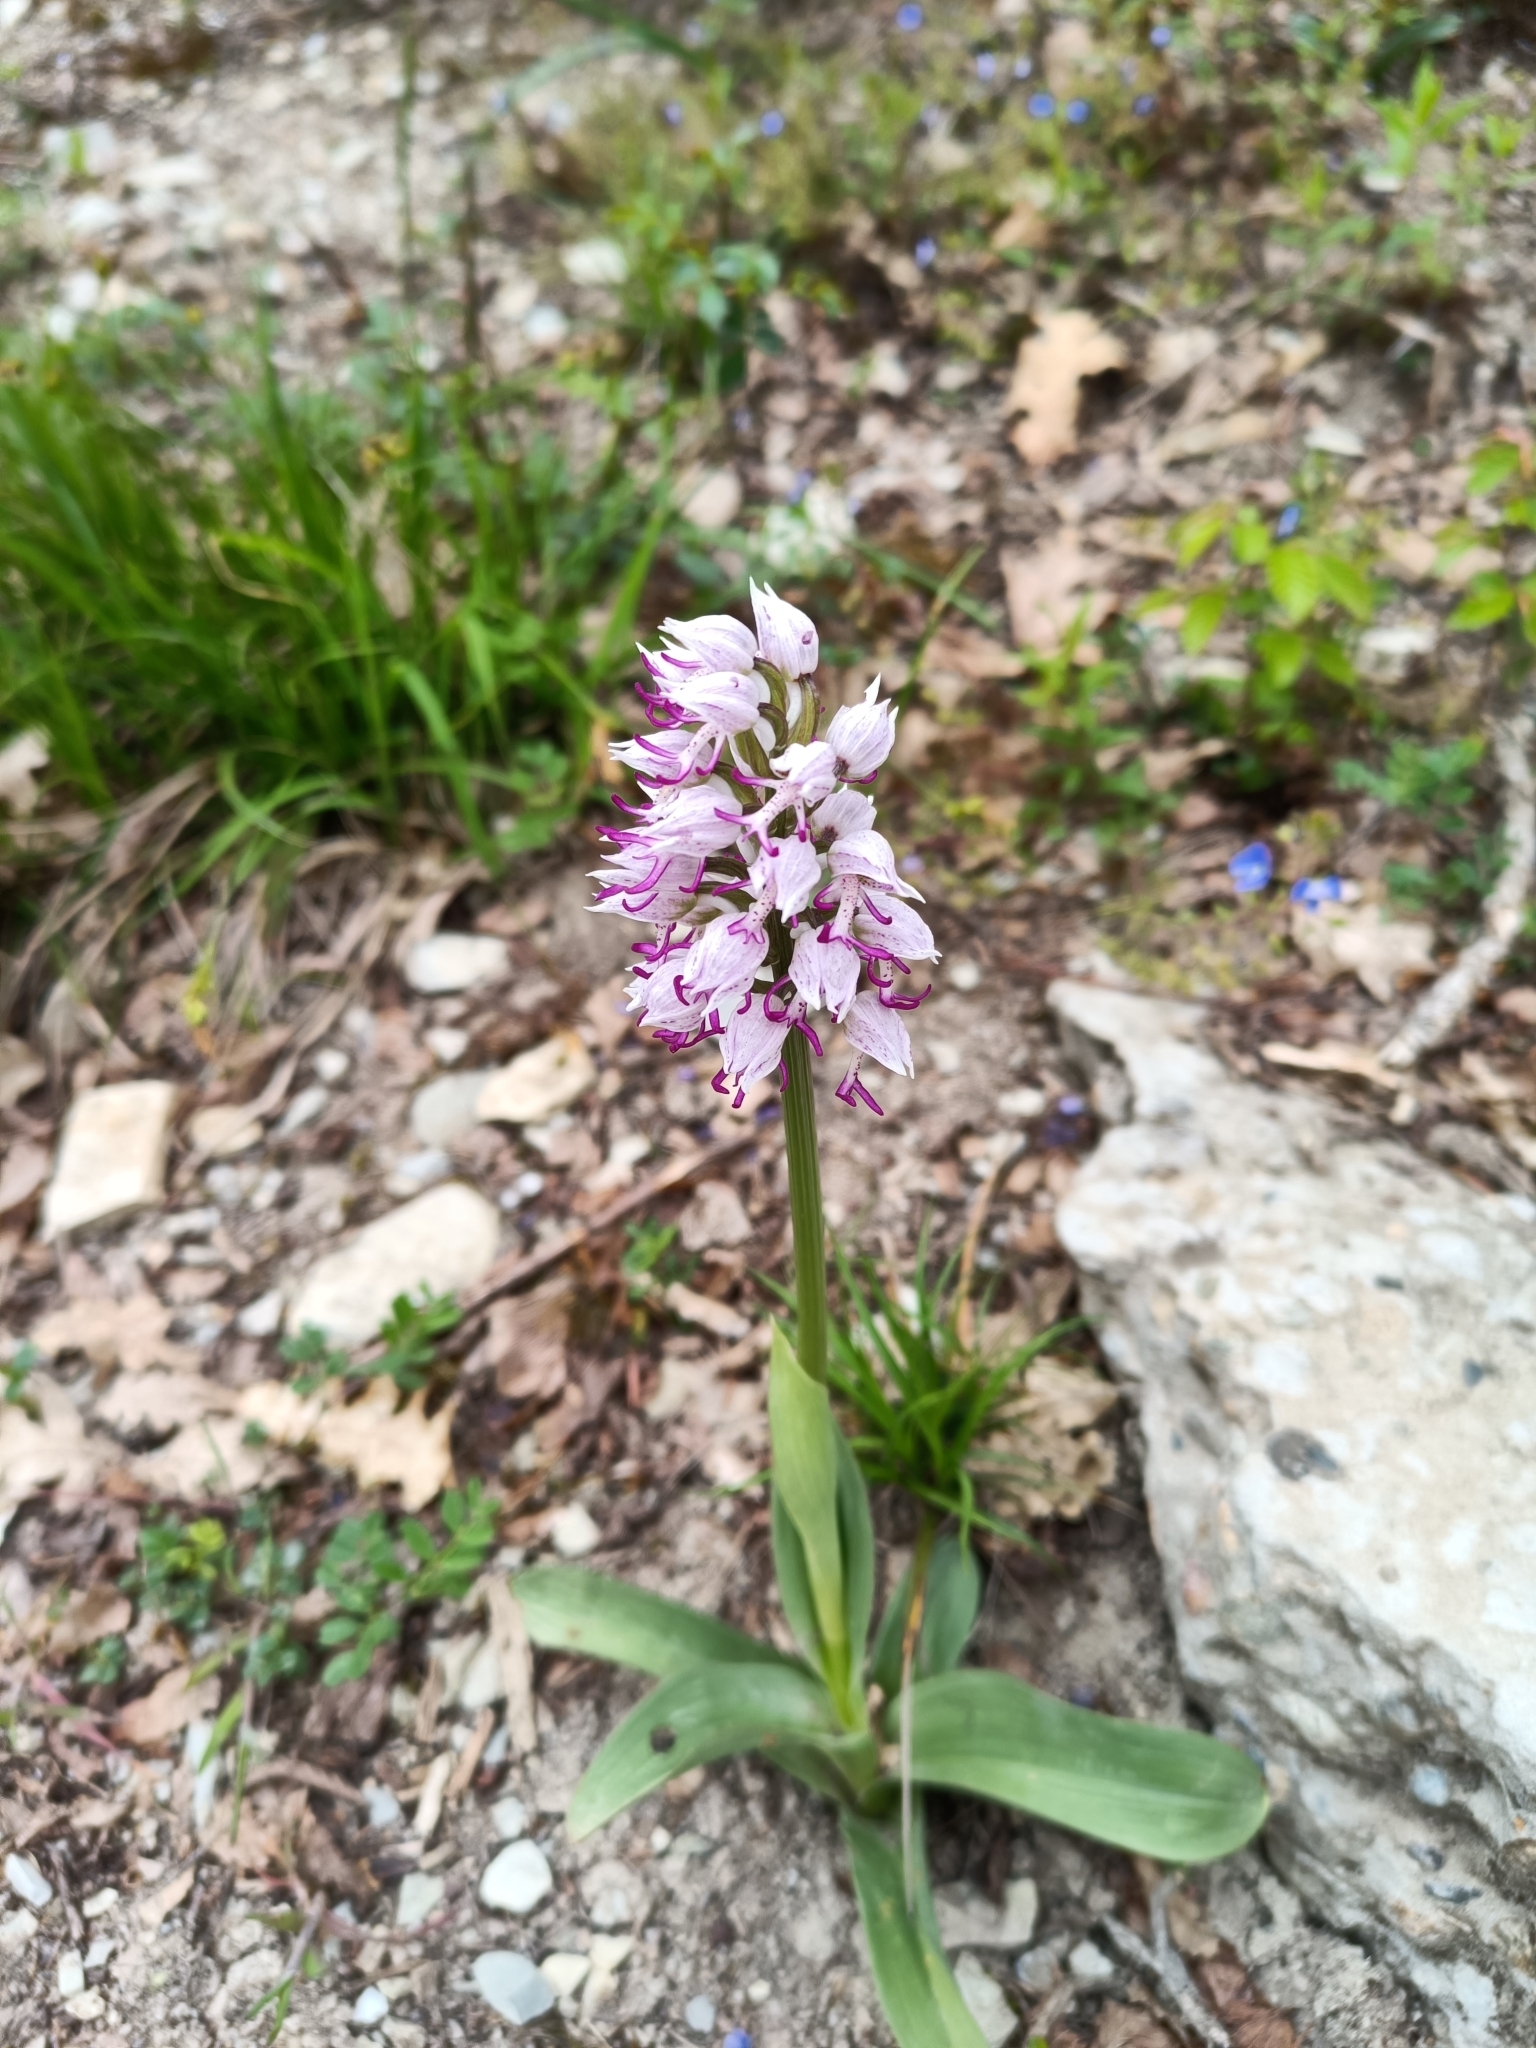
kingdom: Plantae
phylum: Tracheophyta
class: Liliopsida
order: Asparagales
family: Orchidaceae
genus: Orchis
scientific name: Orchis simia
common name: Monkey orchid
